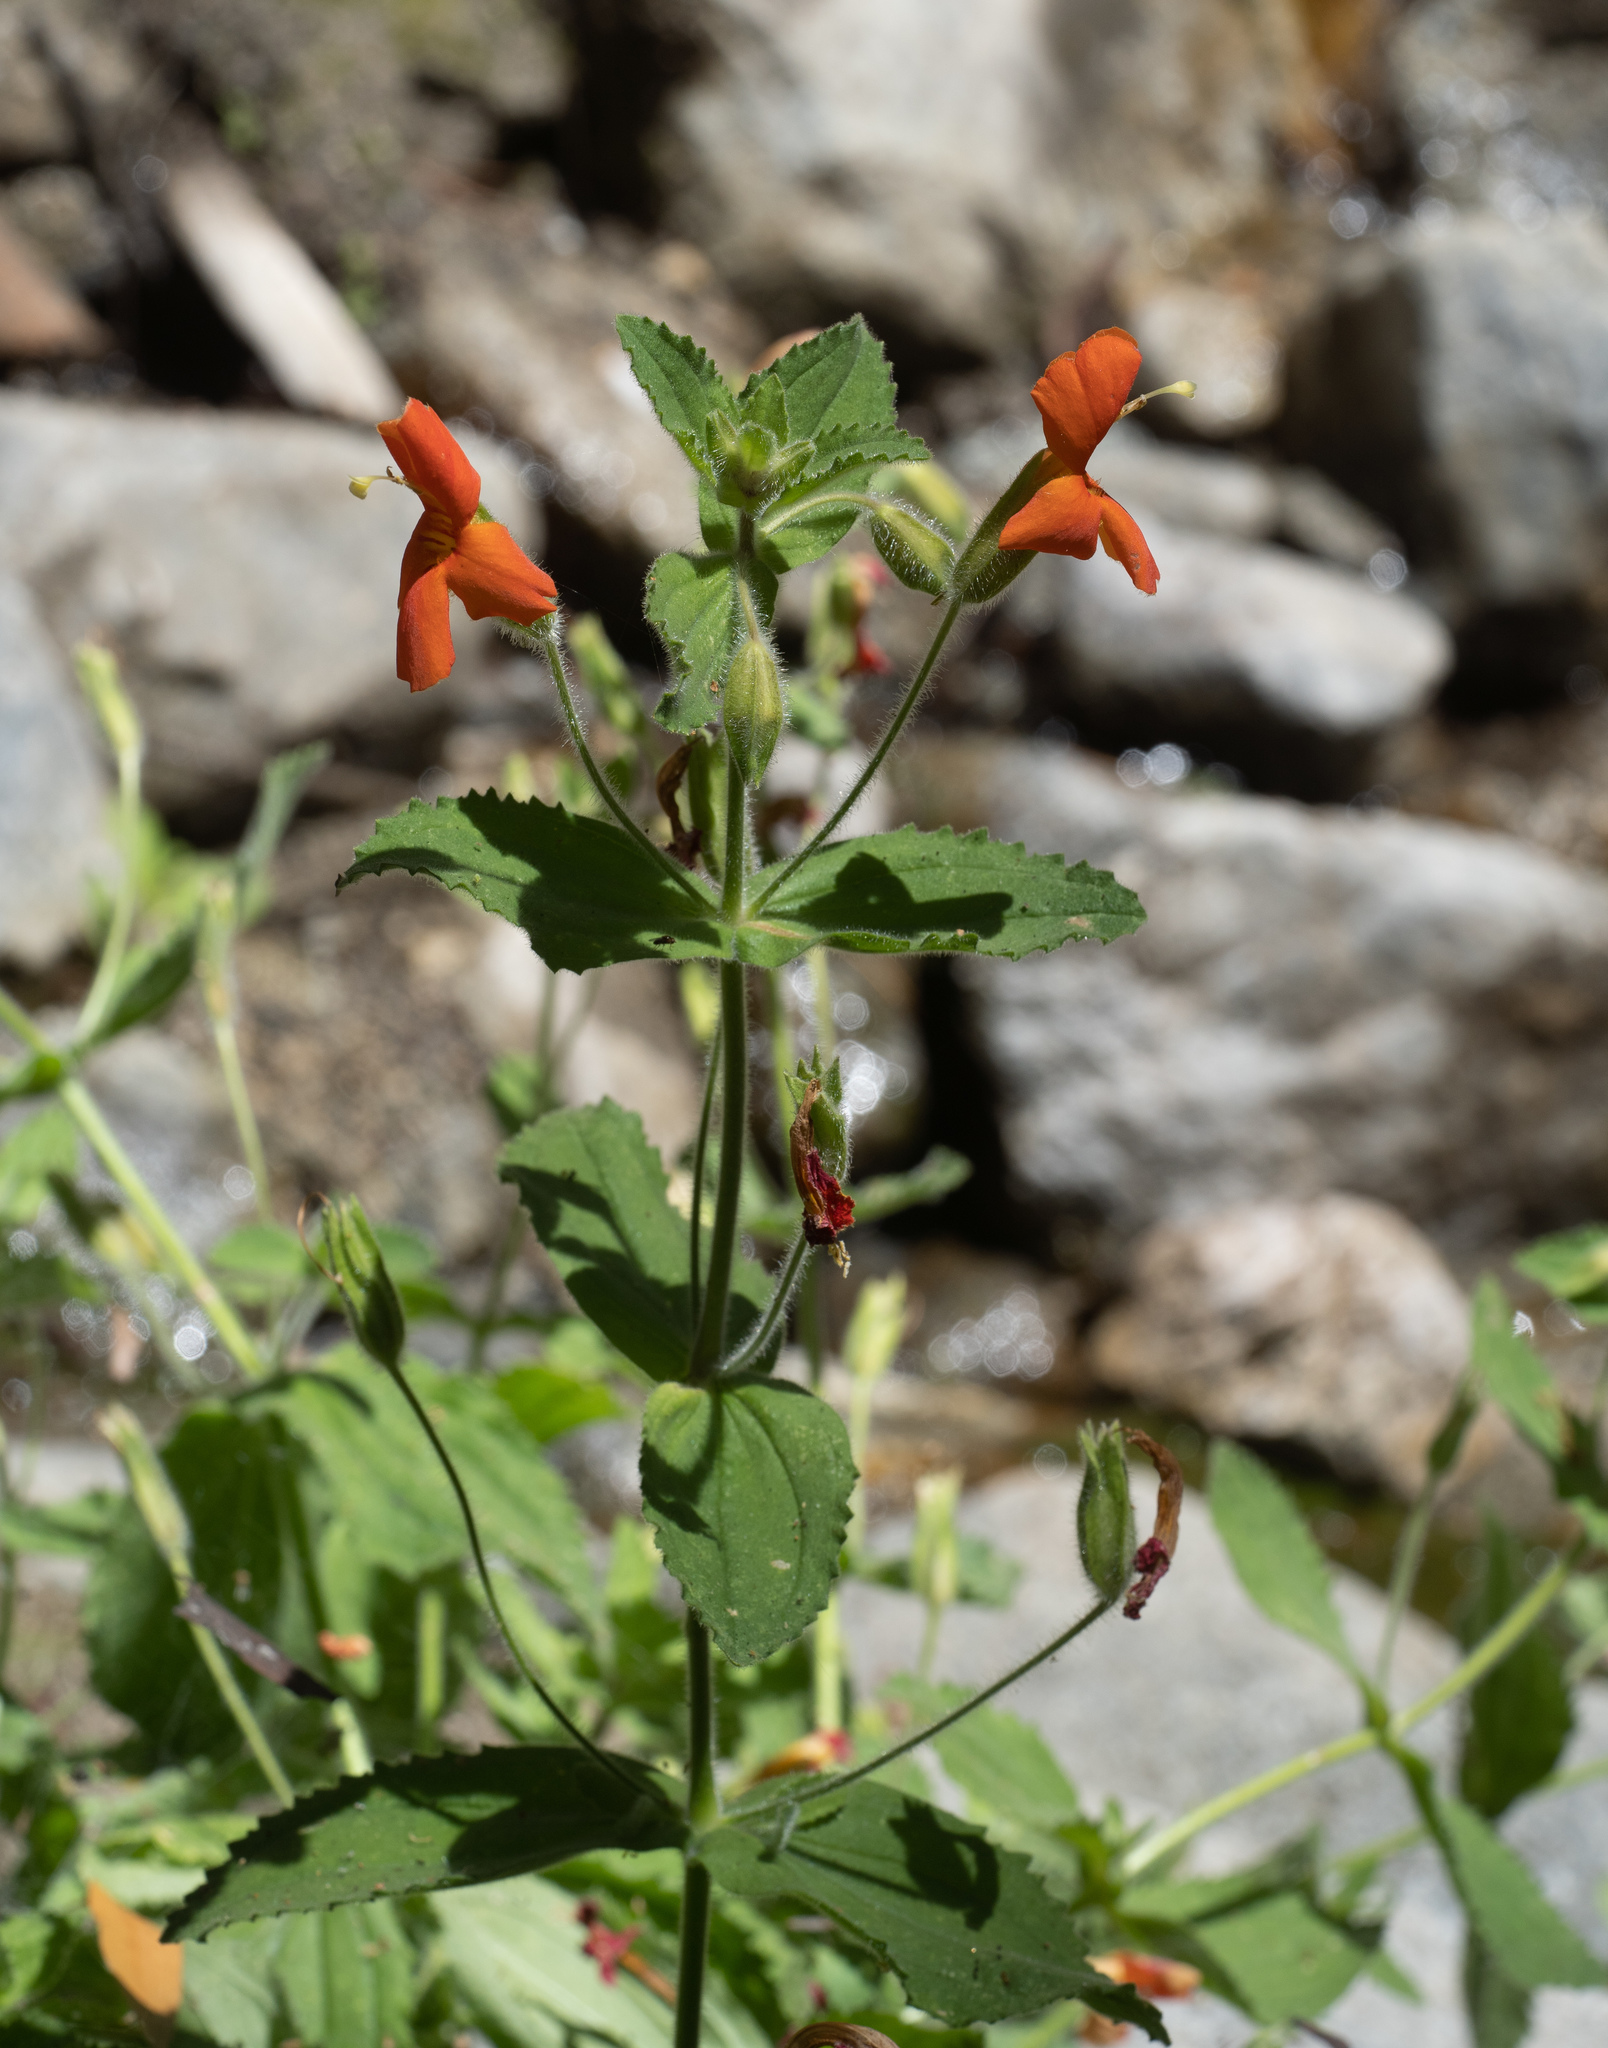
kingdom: Plantae
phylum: Tracheophyta
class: Magnoliopsida
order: Lamiales
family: Phrymaceae
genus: Erythranthe
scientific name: Erythranthe cardinalis
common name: Scarlet monkey-flower
